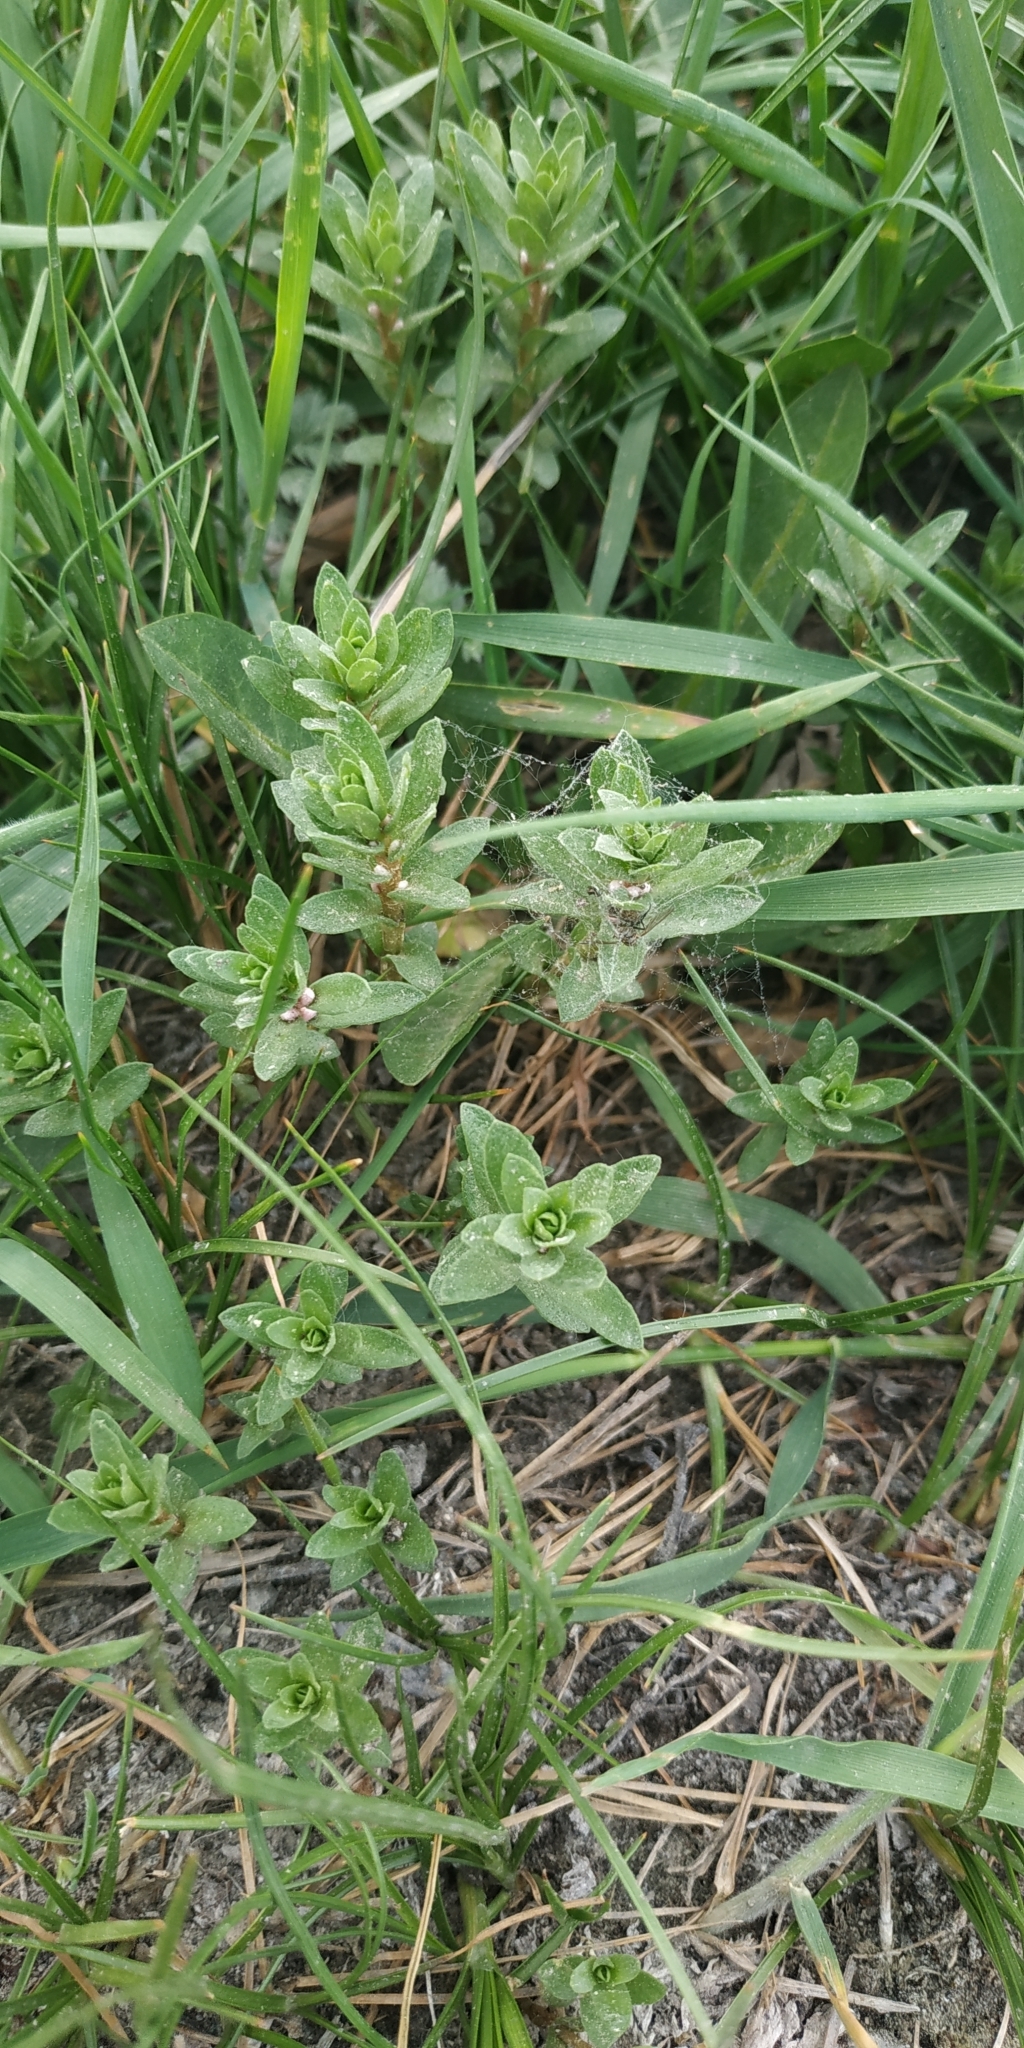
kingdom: Plantae
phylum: Tracheophyta
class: Magnoliopsida
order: Ericales
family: Primulaceae
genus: Lysimachia
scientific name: Lysimachia maritima
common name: Sea milkwort
